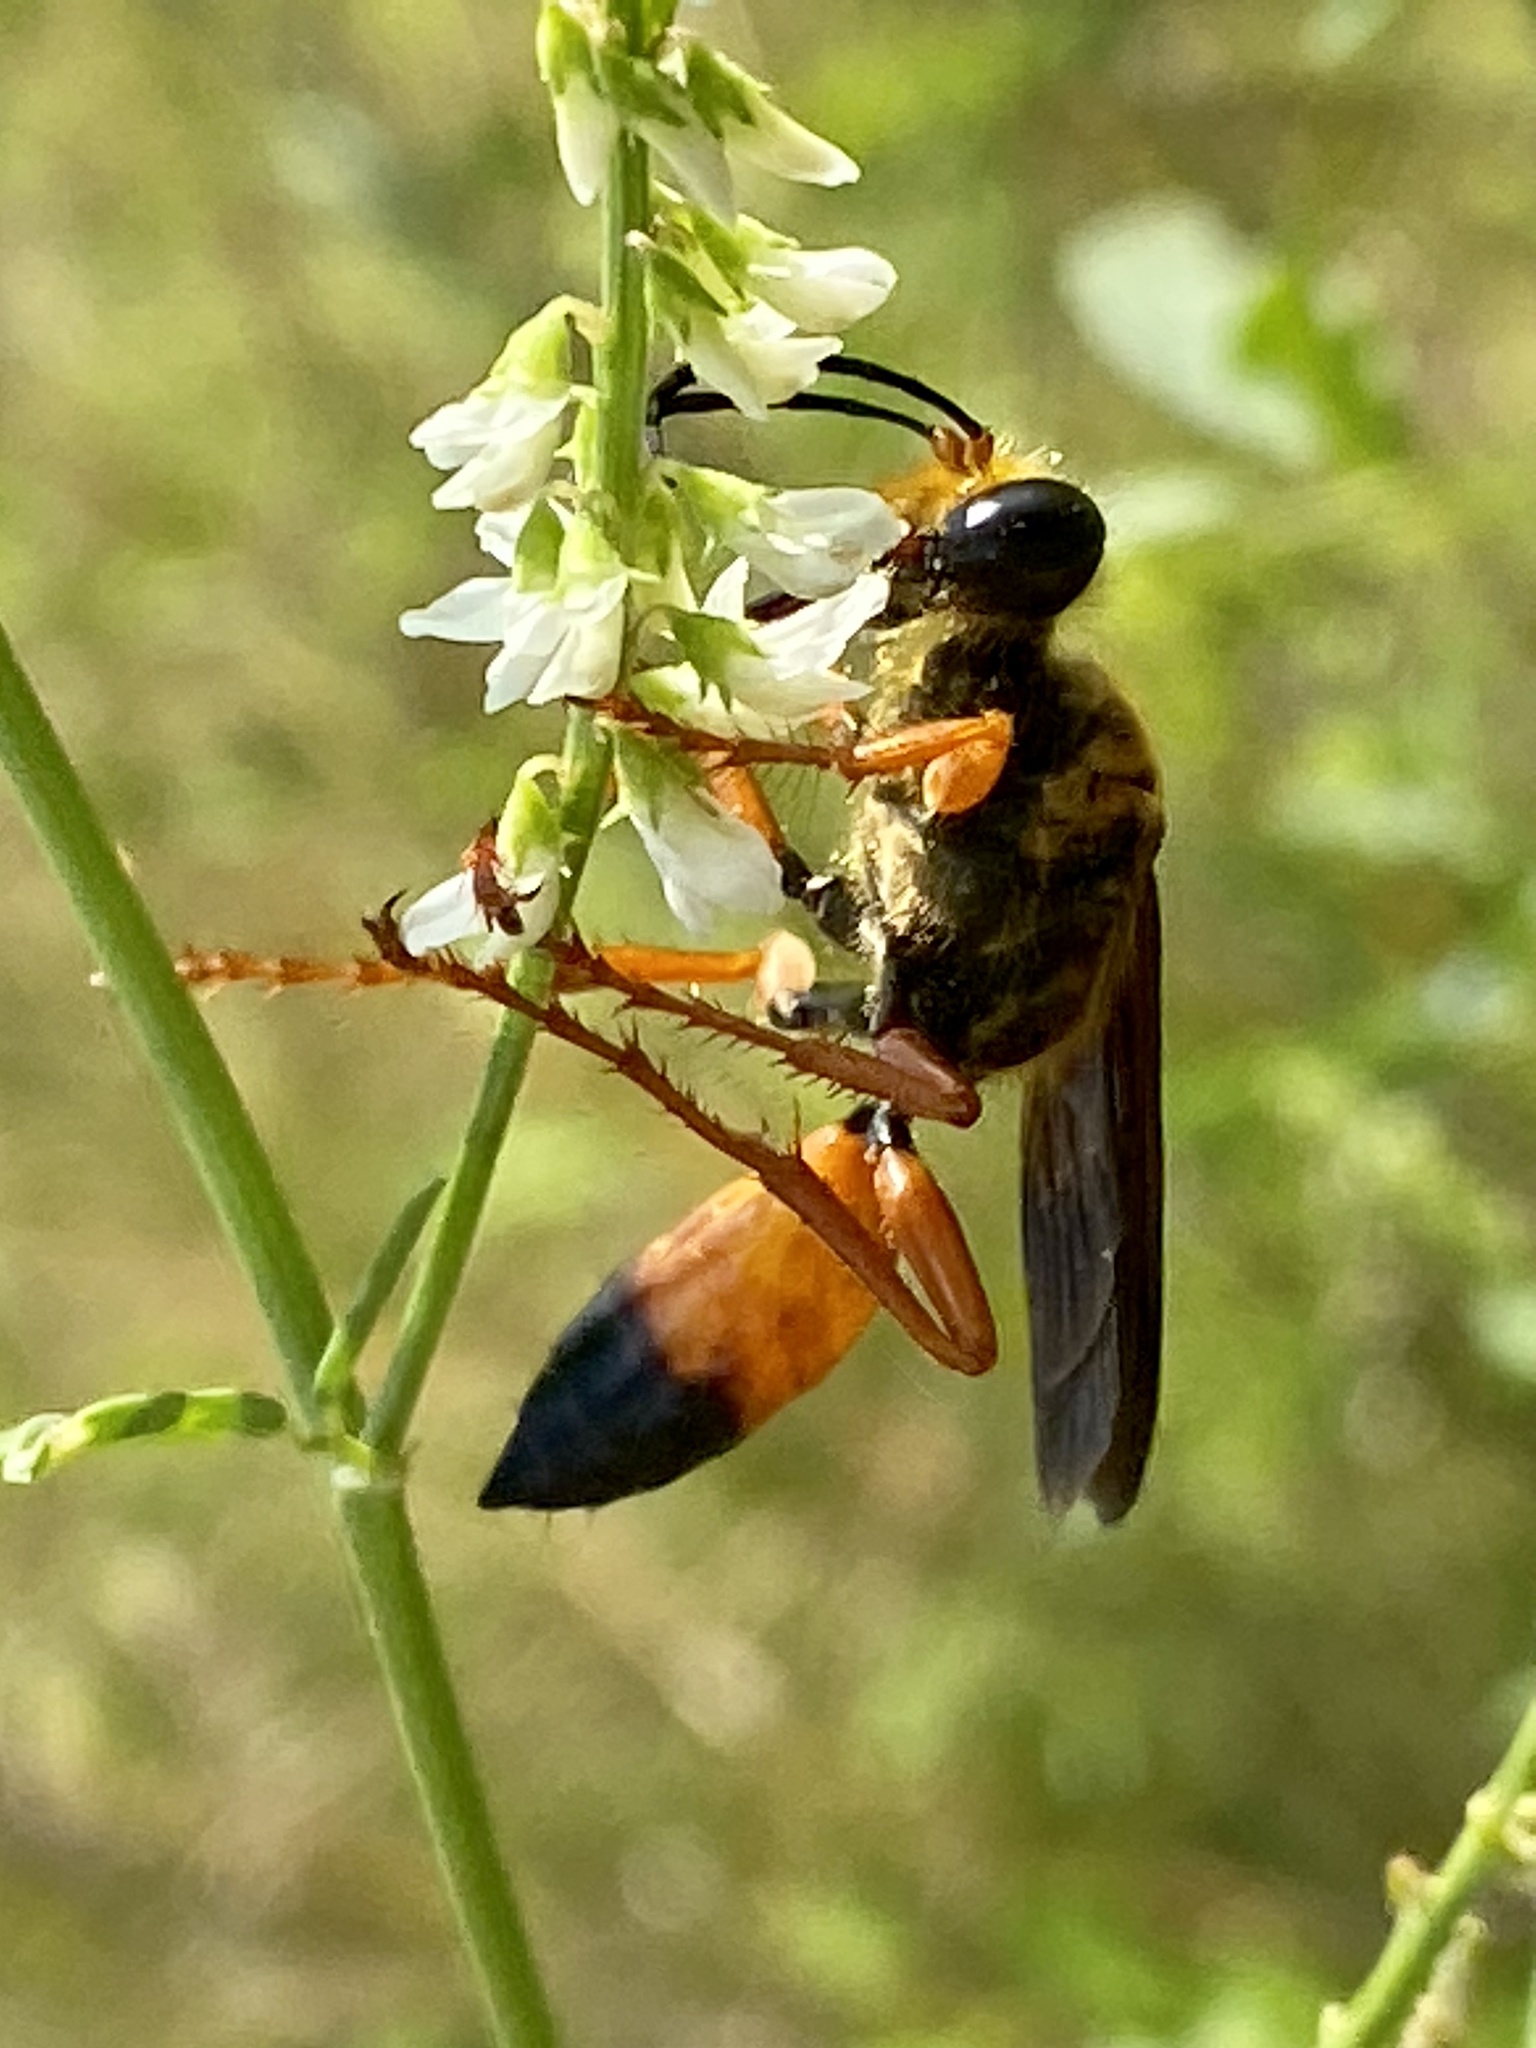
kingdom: Animalia
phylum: Arthropoda
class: Insecta
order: Hymenoptera
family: Sphecidae
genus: Sphex
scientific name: Sphex ichneumoneus
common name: Great golden digger wasp
